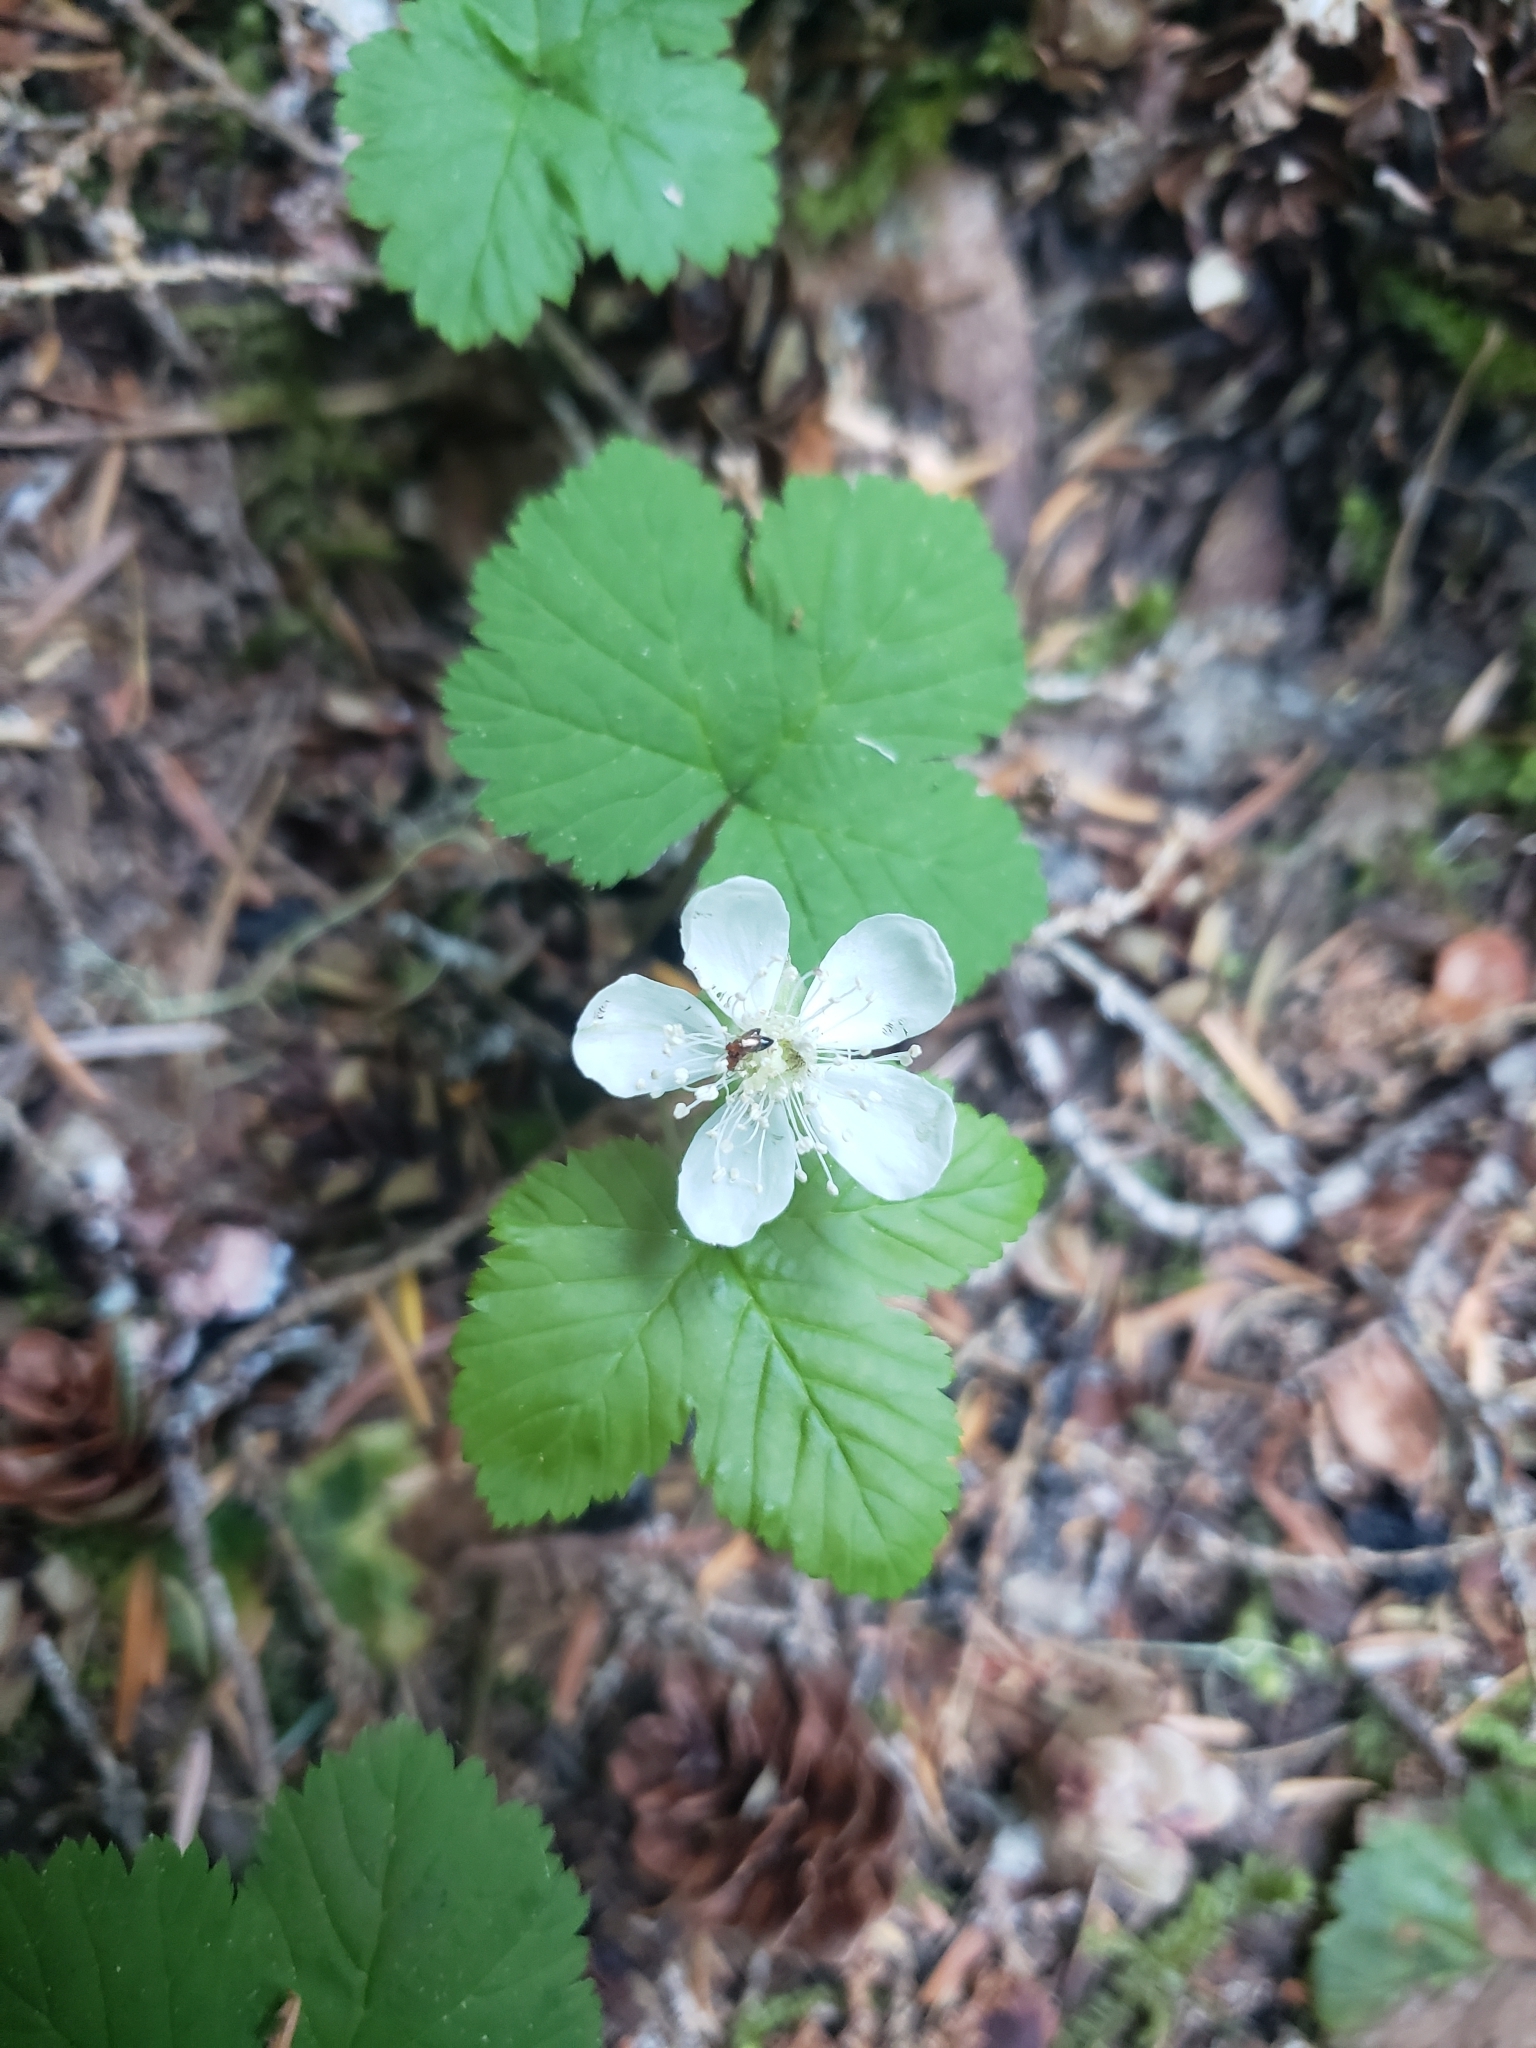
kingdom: Plantae
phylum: Tracheophyta
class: Magnoliopsida
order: Rosales
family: Rosaceae
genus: Rubus
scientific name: Rubus lasiococcus
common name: Dwarf bramble
